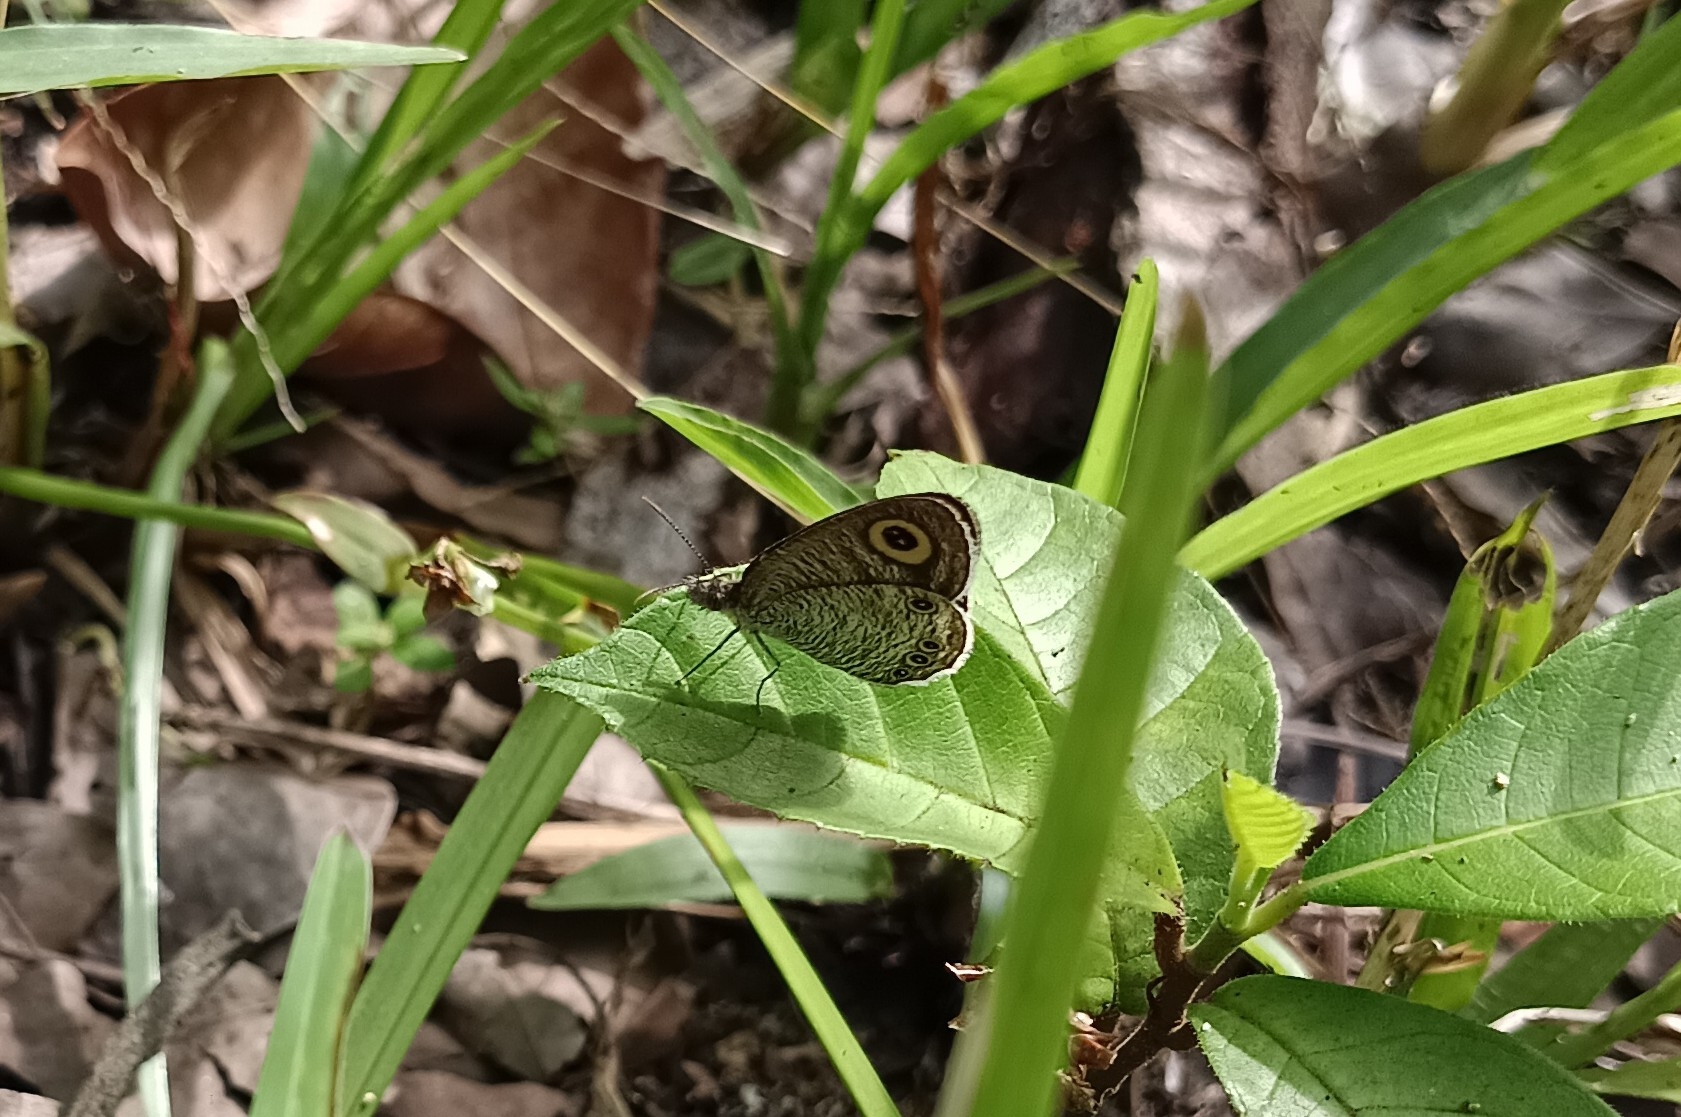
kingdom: Animalia
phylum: Arthropoda
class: Insecta
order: Lepidoptera
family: Nymphalidae
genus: Ypthima
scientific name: Ypthima huebneri
